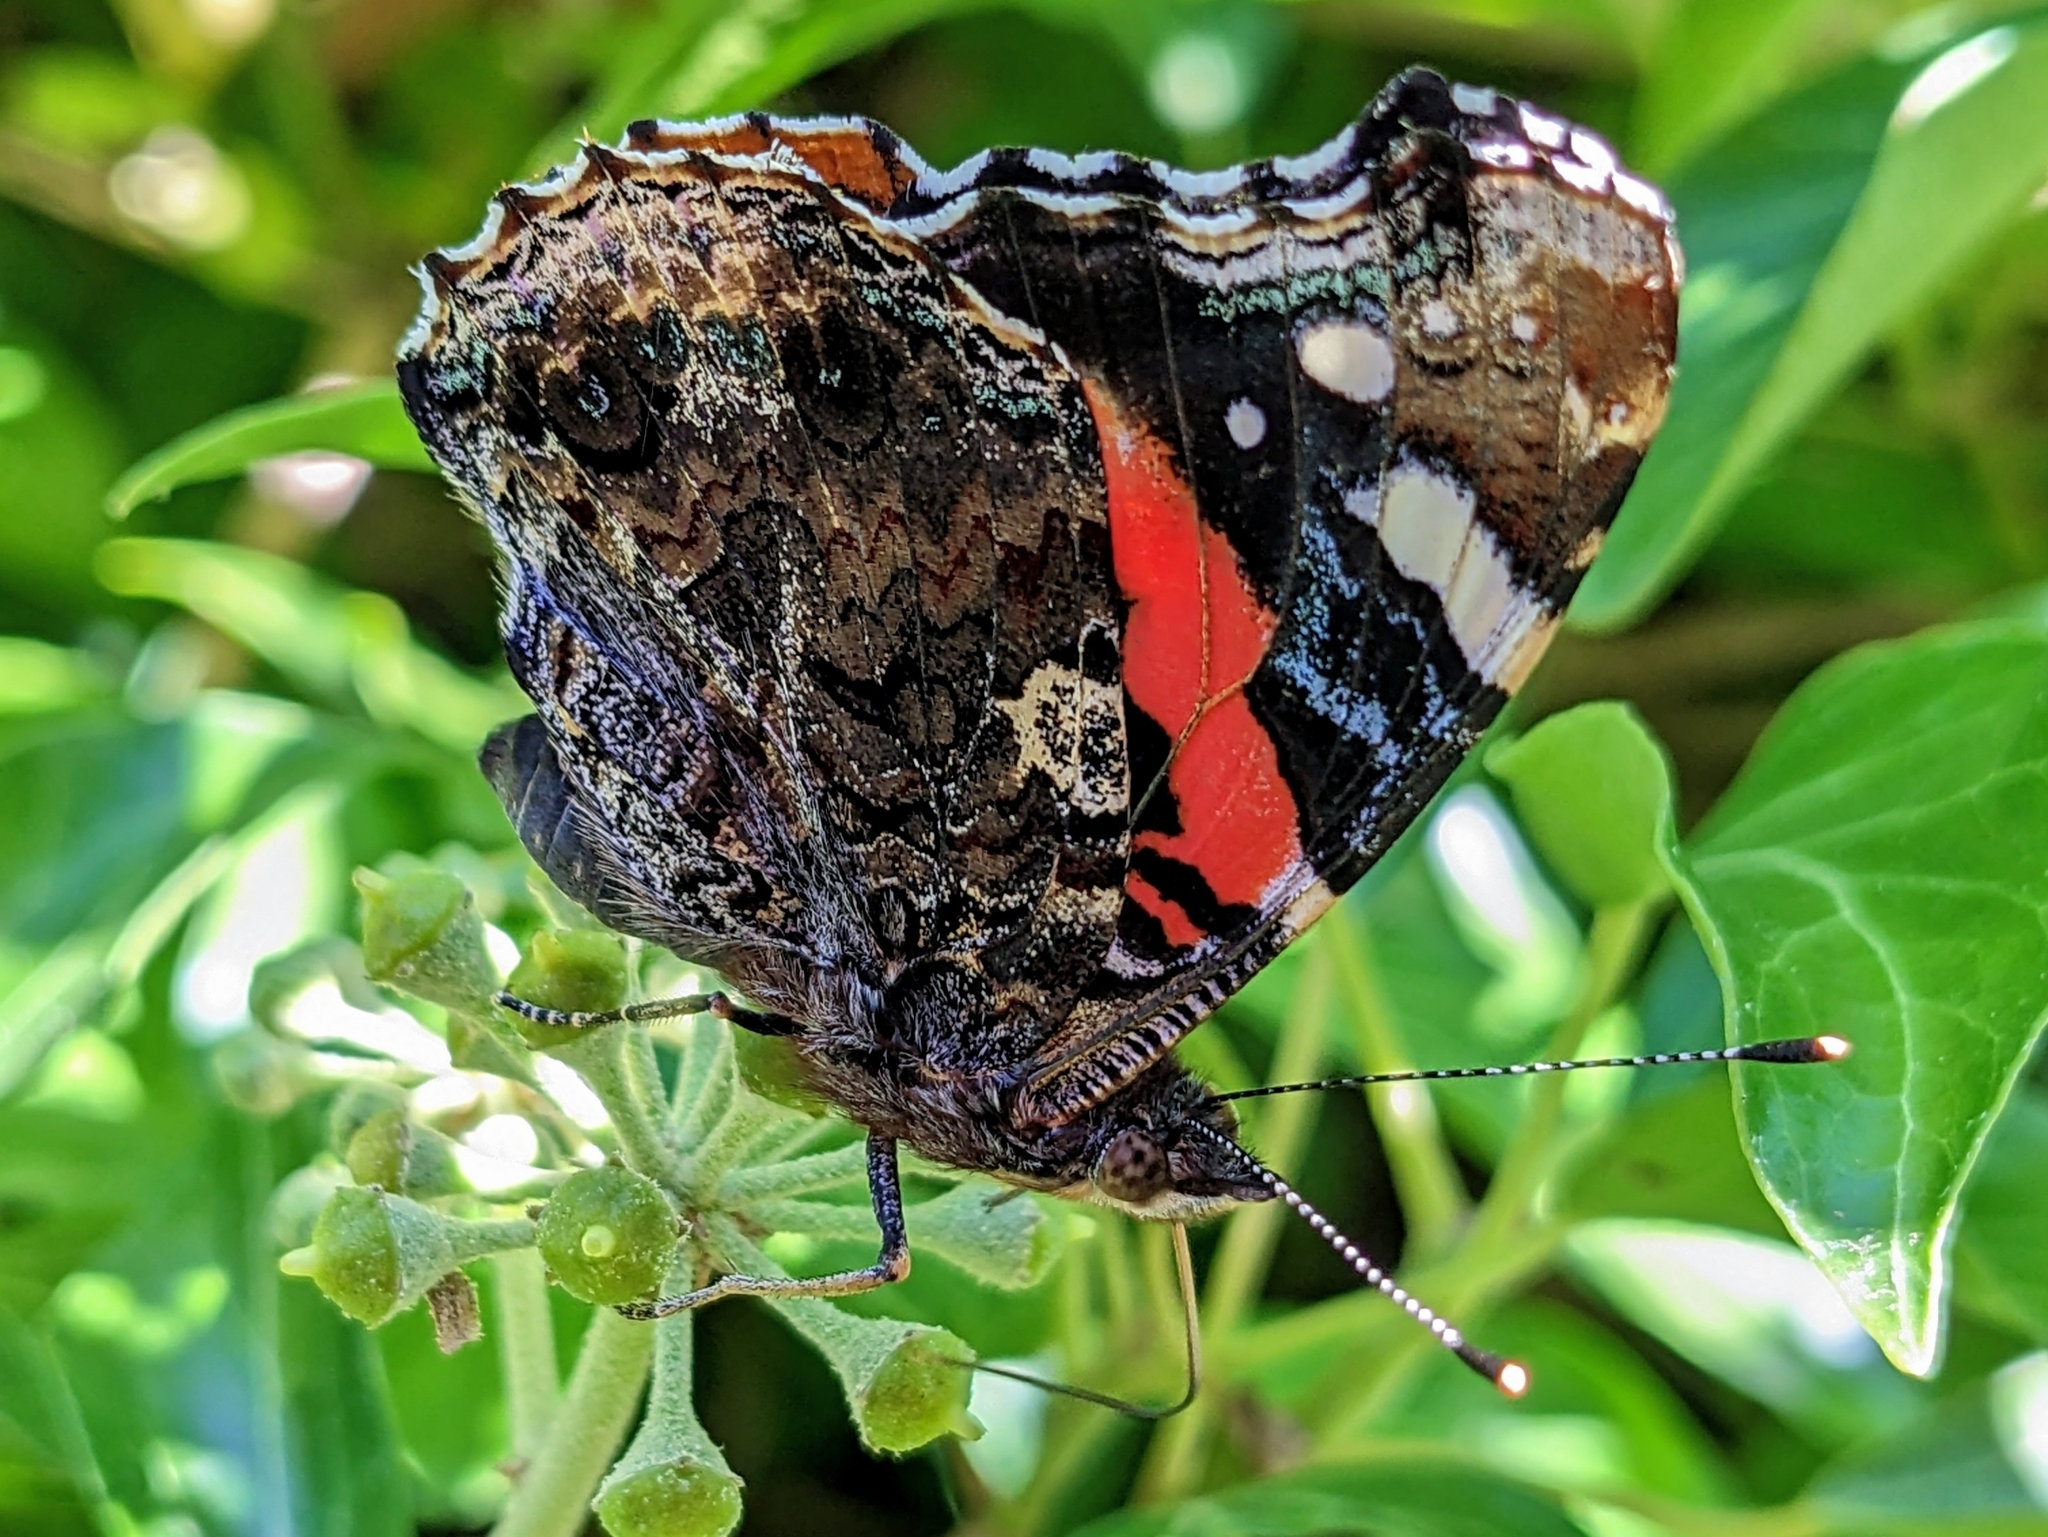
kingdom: Animalia
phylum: Arthropoda
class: Insecta
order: Lepidoptera
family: Nymphalidae
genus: Vanessa
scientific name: Vanessa atalanta
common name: Red admiral
